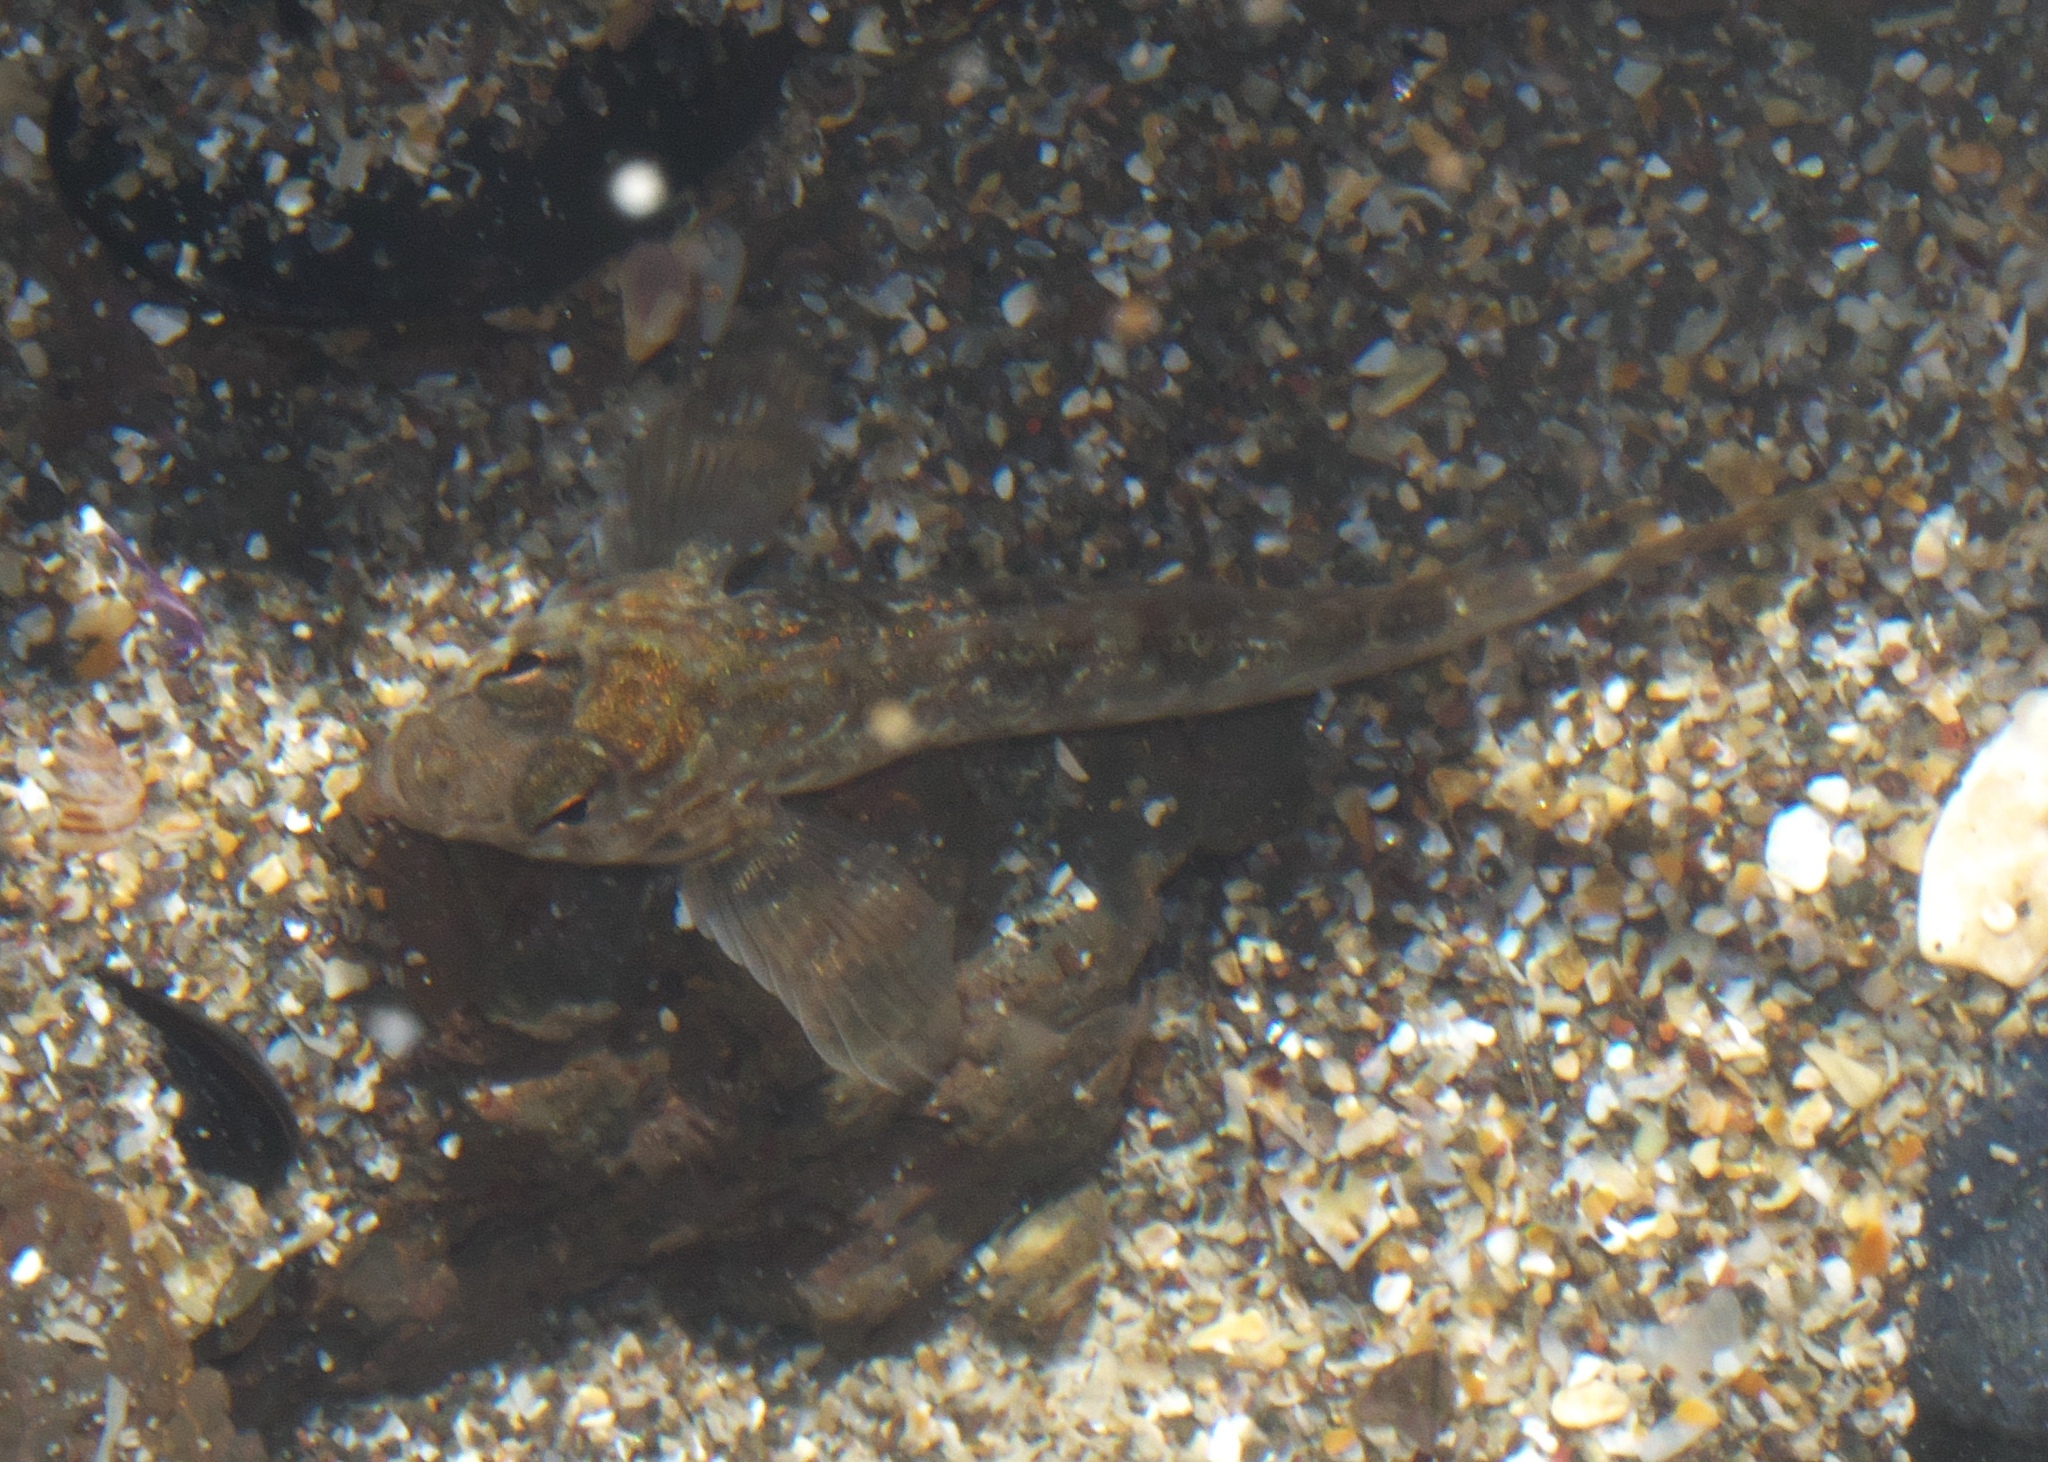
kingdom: Animalia
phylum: Chordata
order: Perciformes
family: Tripterygiidae
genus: Bellapiscis
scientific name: Bellapiscis medius
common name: Twister
